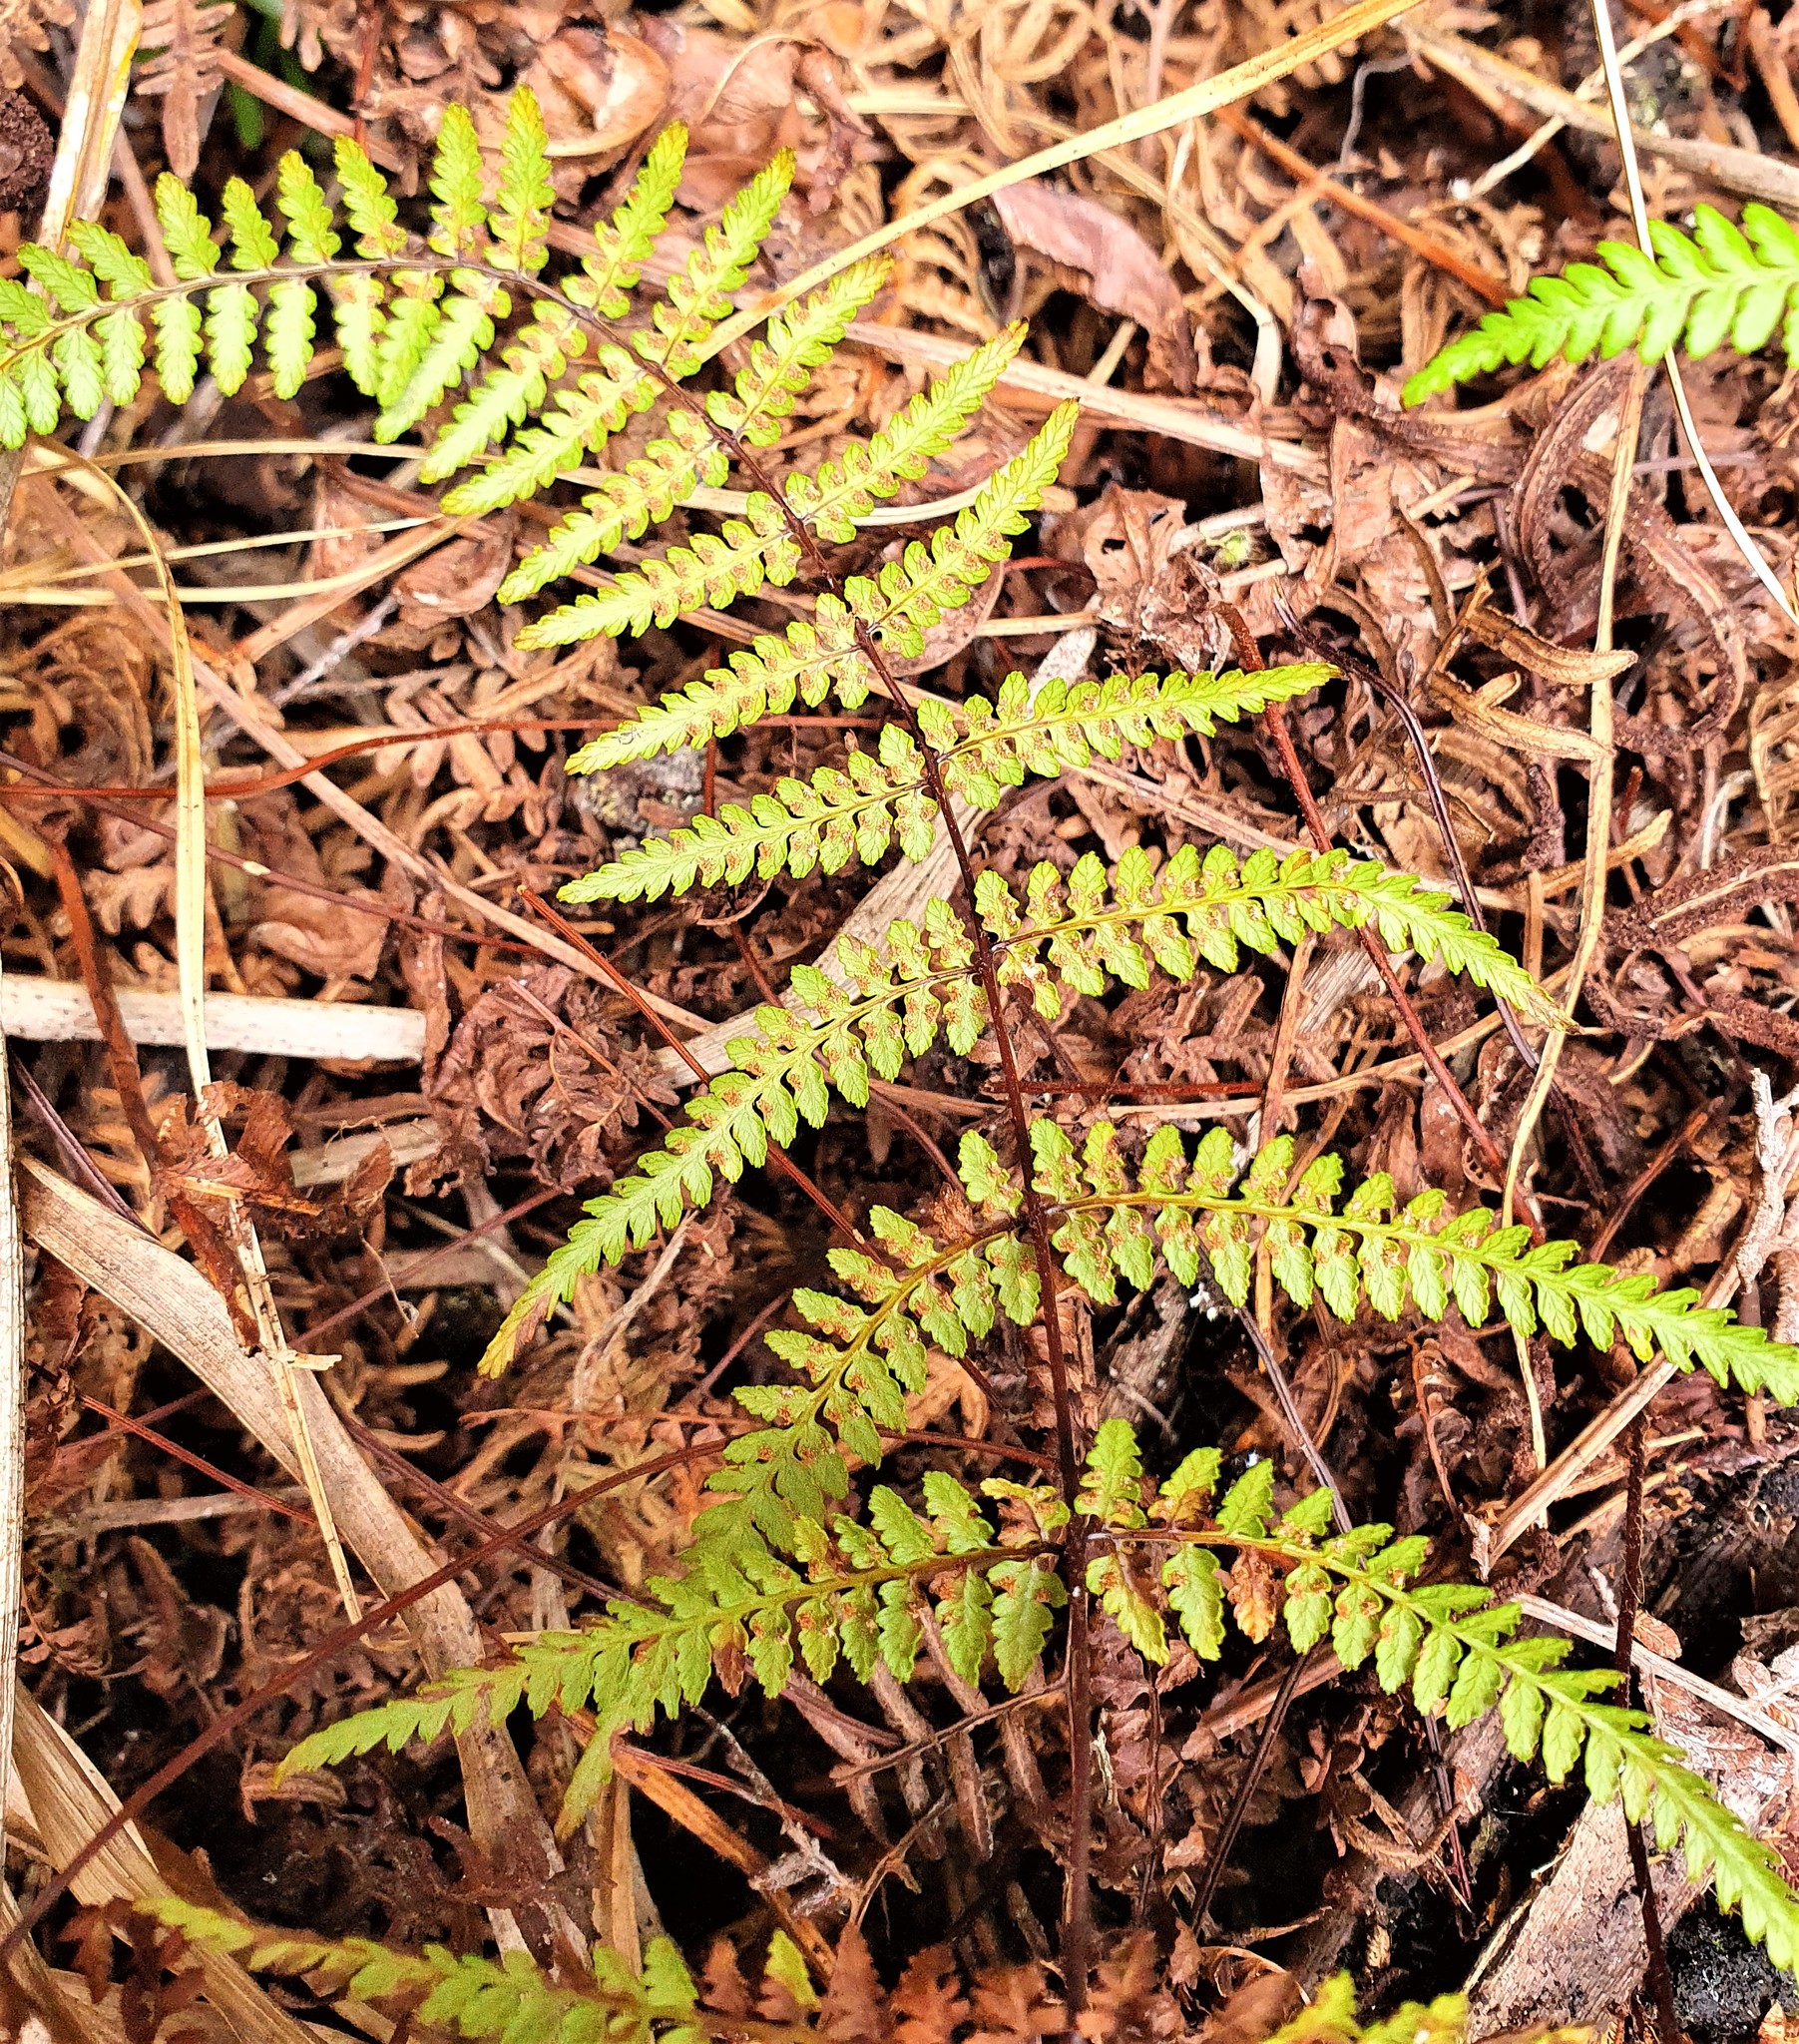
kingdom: Plantae
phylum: Tracheophyta
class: Polypodiopsida
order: Polypodiales
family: Dennstaedtiaceae
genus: Hiya
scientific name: Hiya distans
